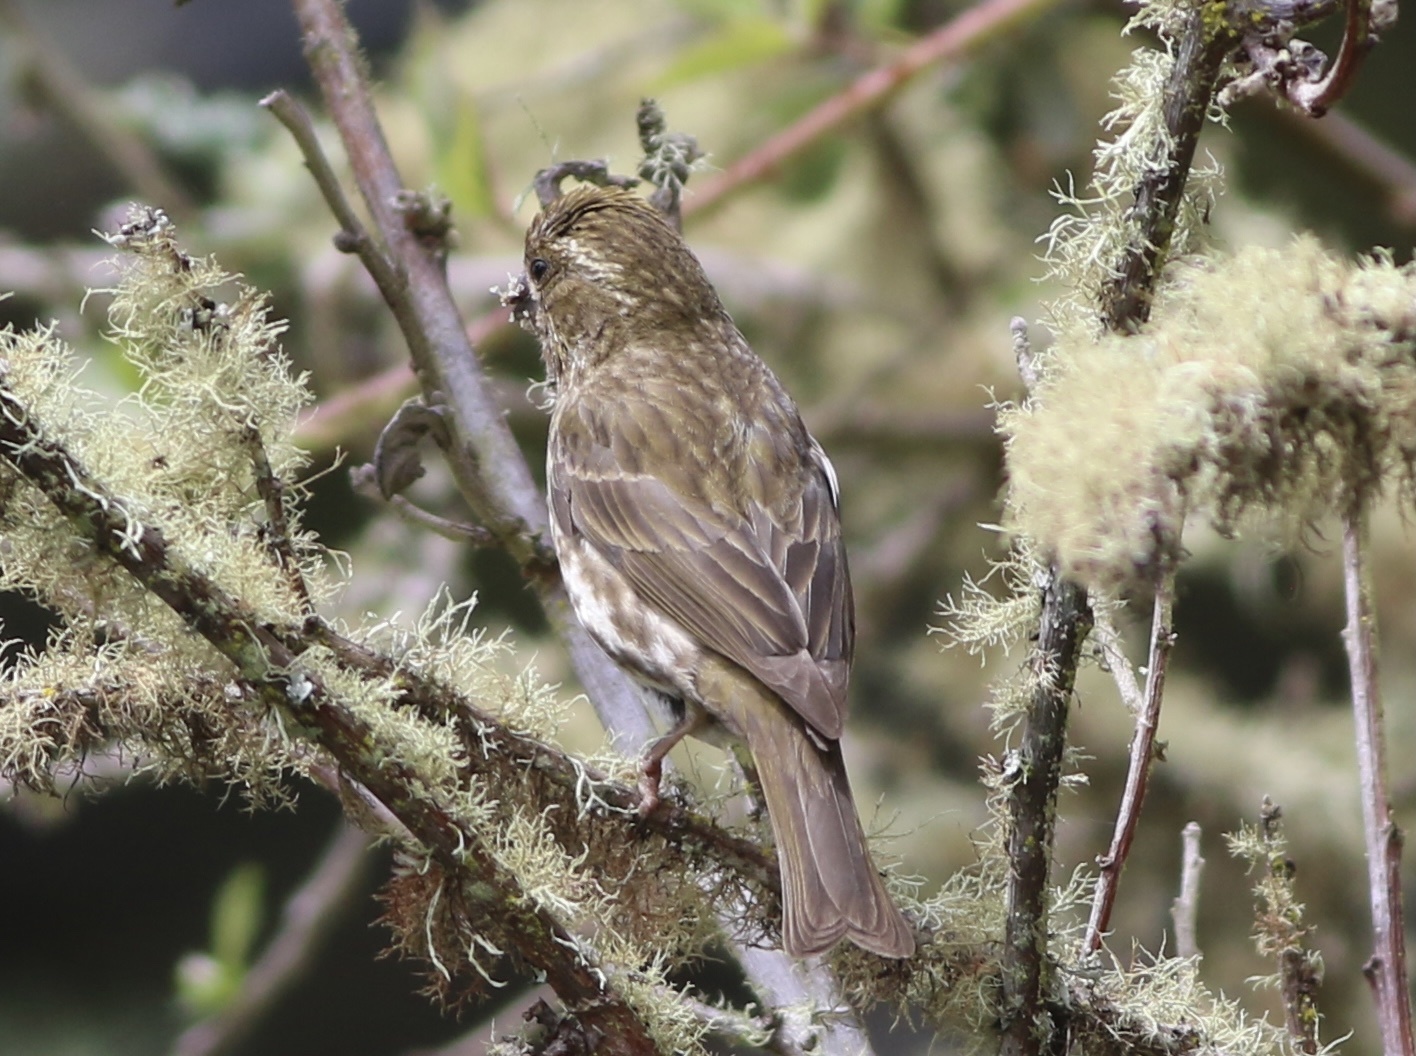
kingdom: Animalia
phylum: Chordata
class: Aves
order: Passeriformes
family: Fringillidae
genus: Haemorhous
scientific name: Haemorhous purpureus
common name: Purple finch
